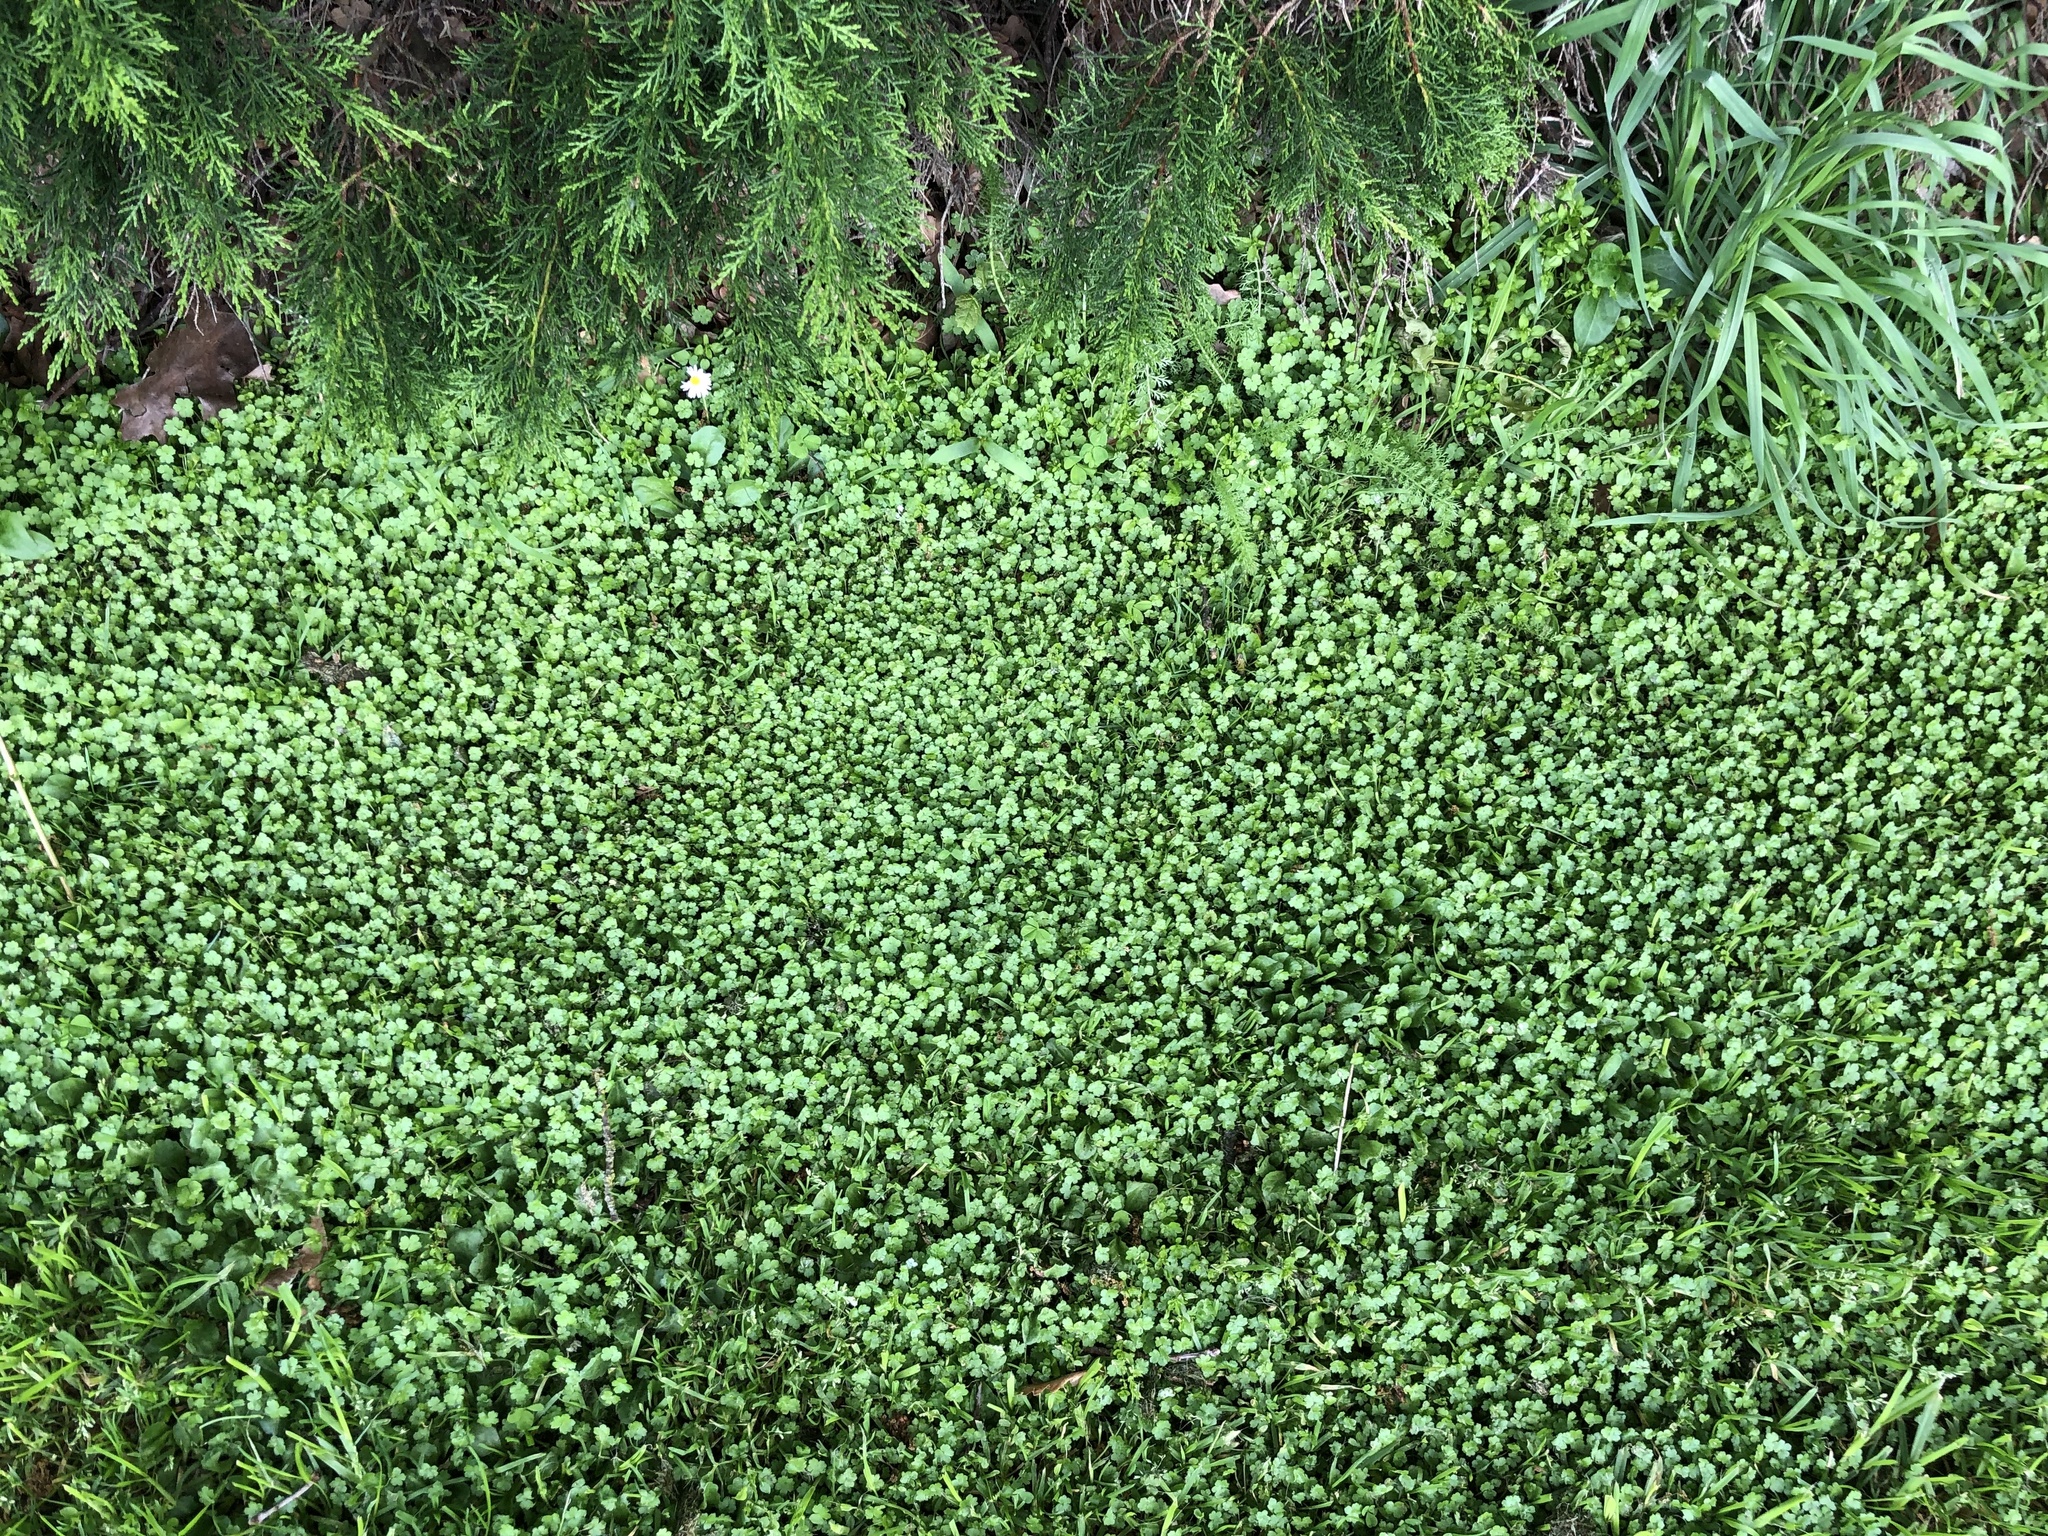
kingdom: Plantae
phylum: Tracheophyta
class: Magnoliopsida
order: Apiales
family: Araliaceae
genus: Hydrocotyle
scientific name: Hydrocotyle heteromeria
